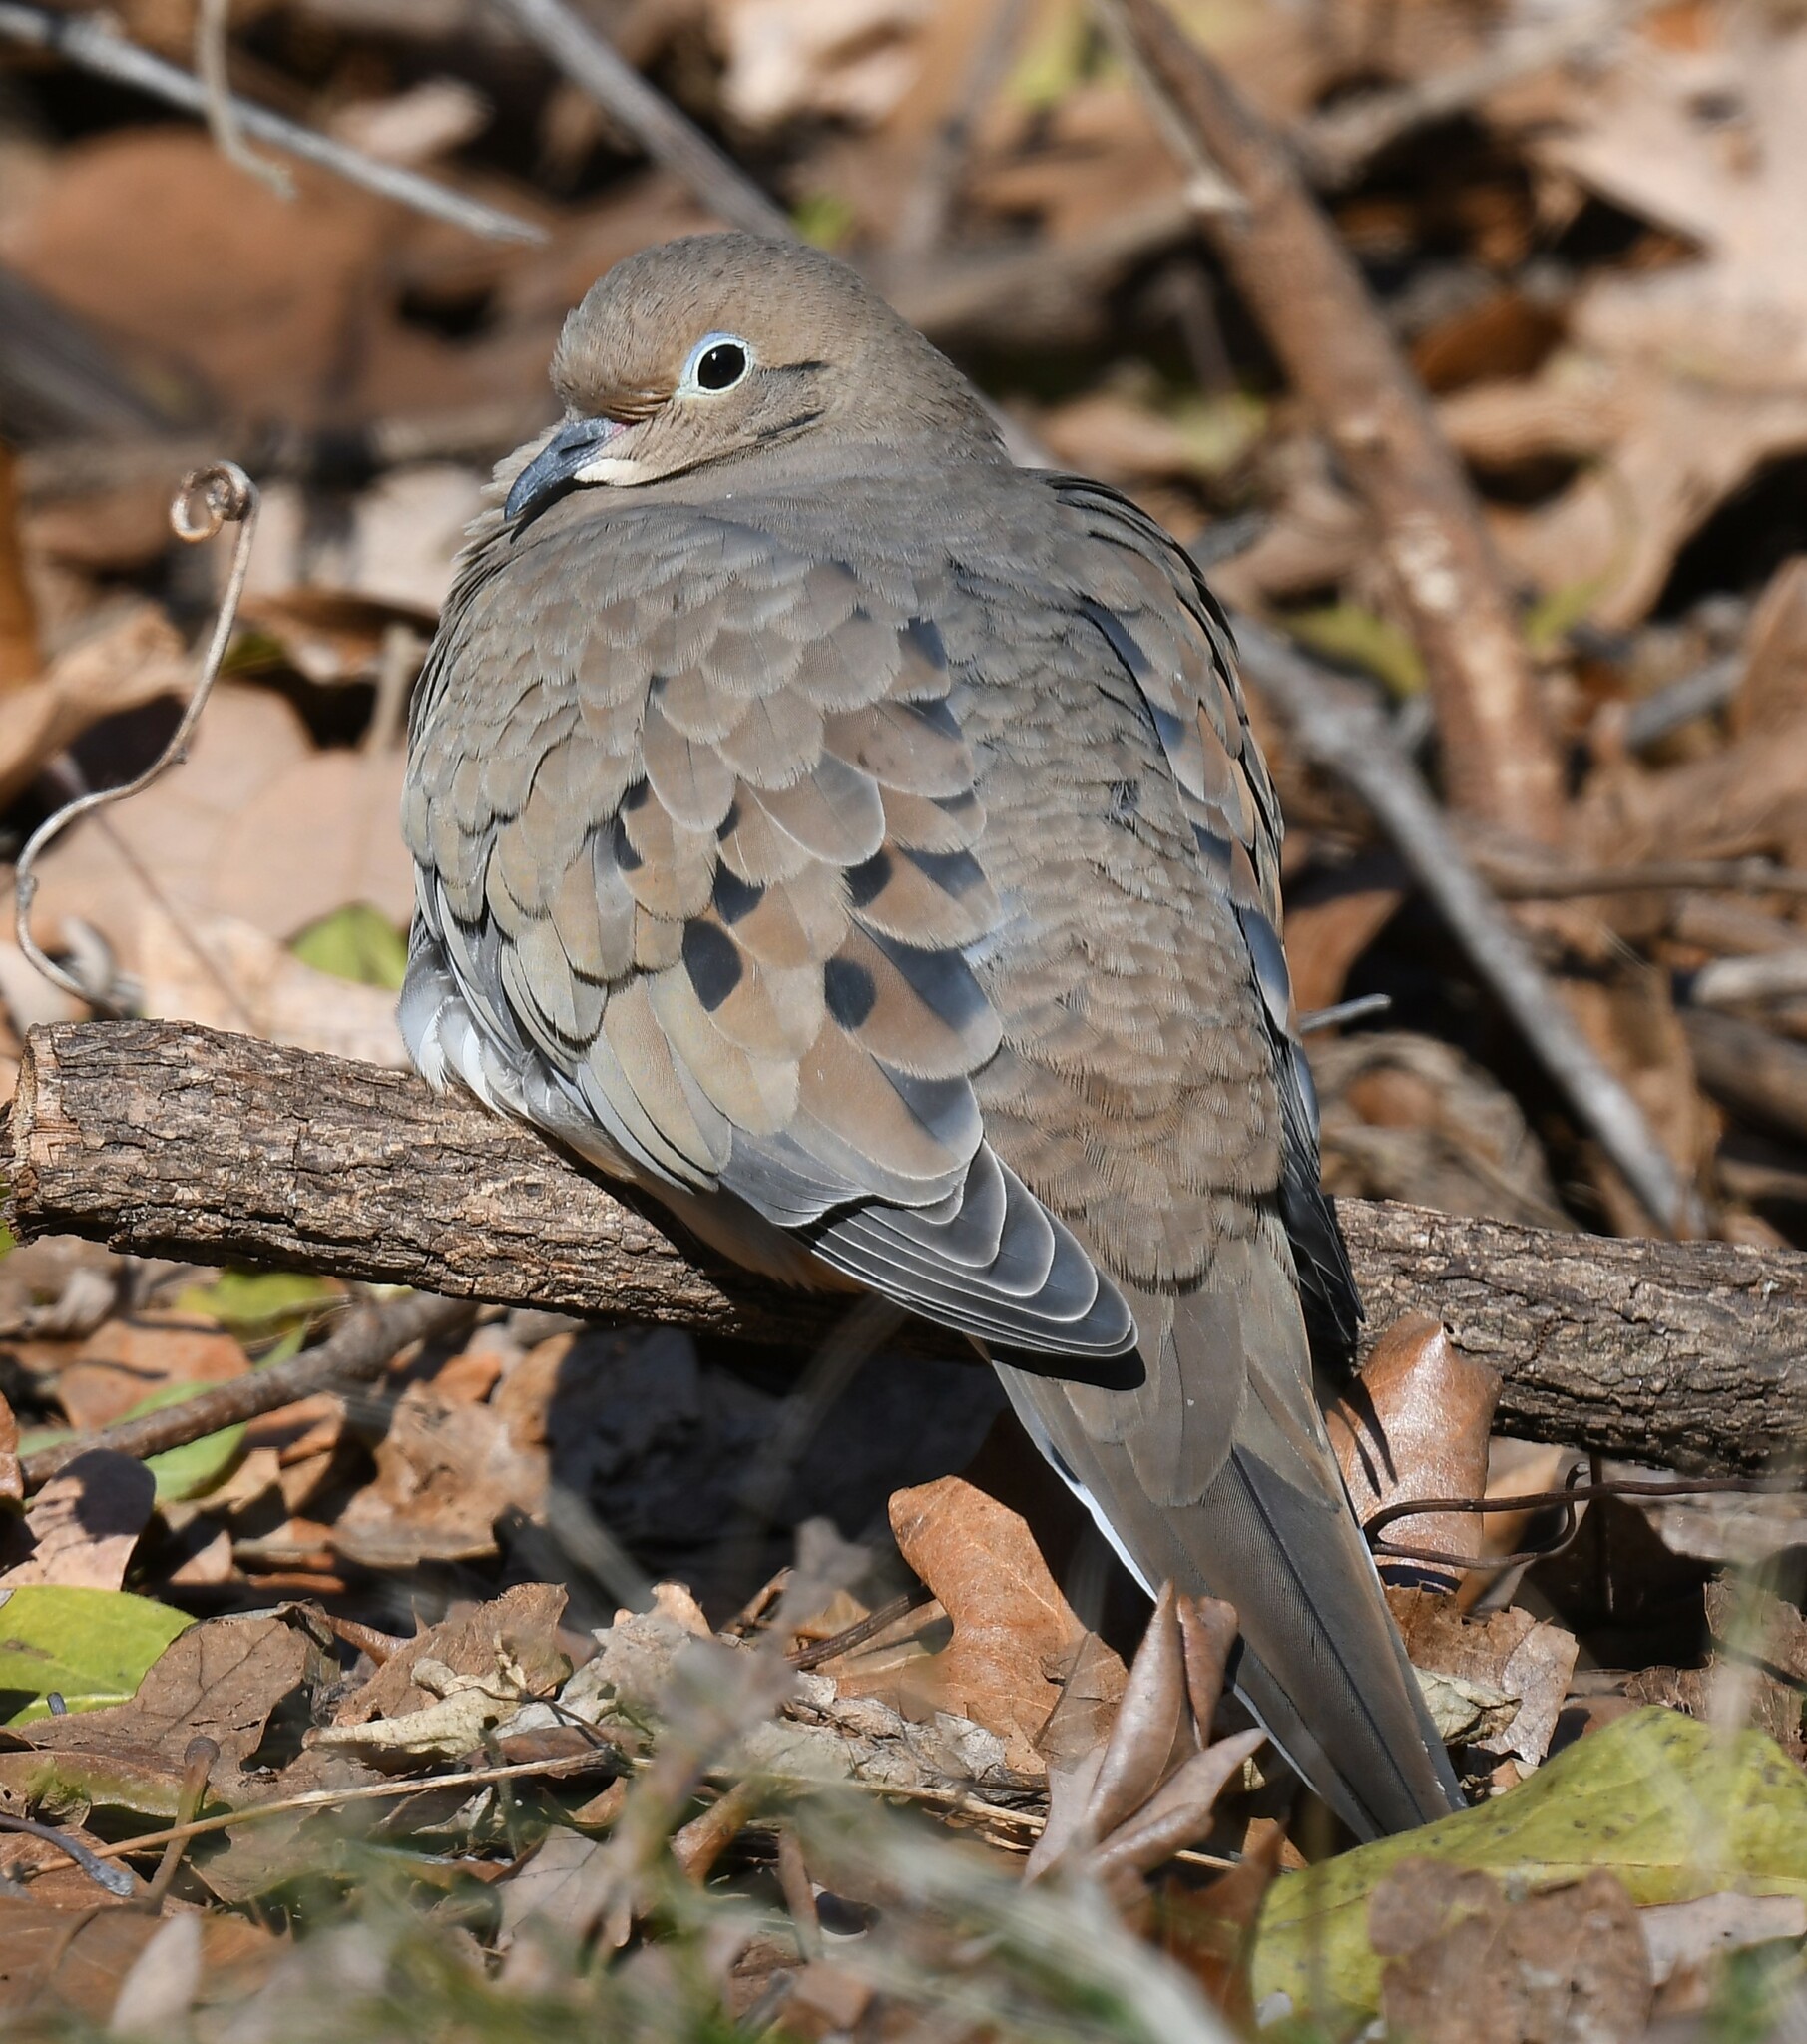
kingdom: Animalia
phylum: Chordata
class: Aves
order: Columbiformes
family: Columbidae
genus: Zenaida
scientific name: Zenaida macroura
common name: Mourning dove
